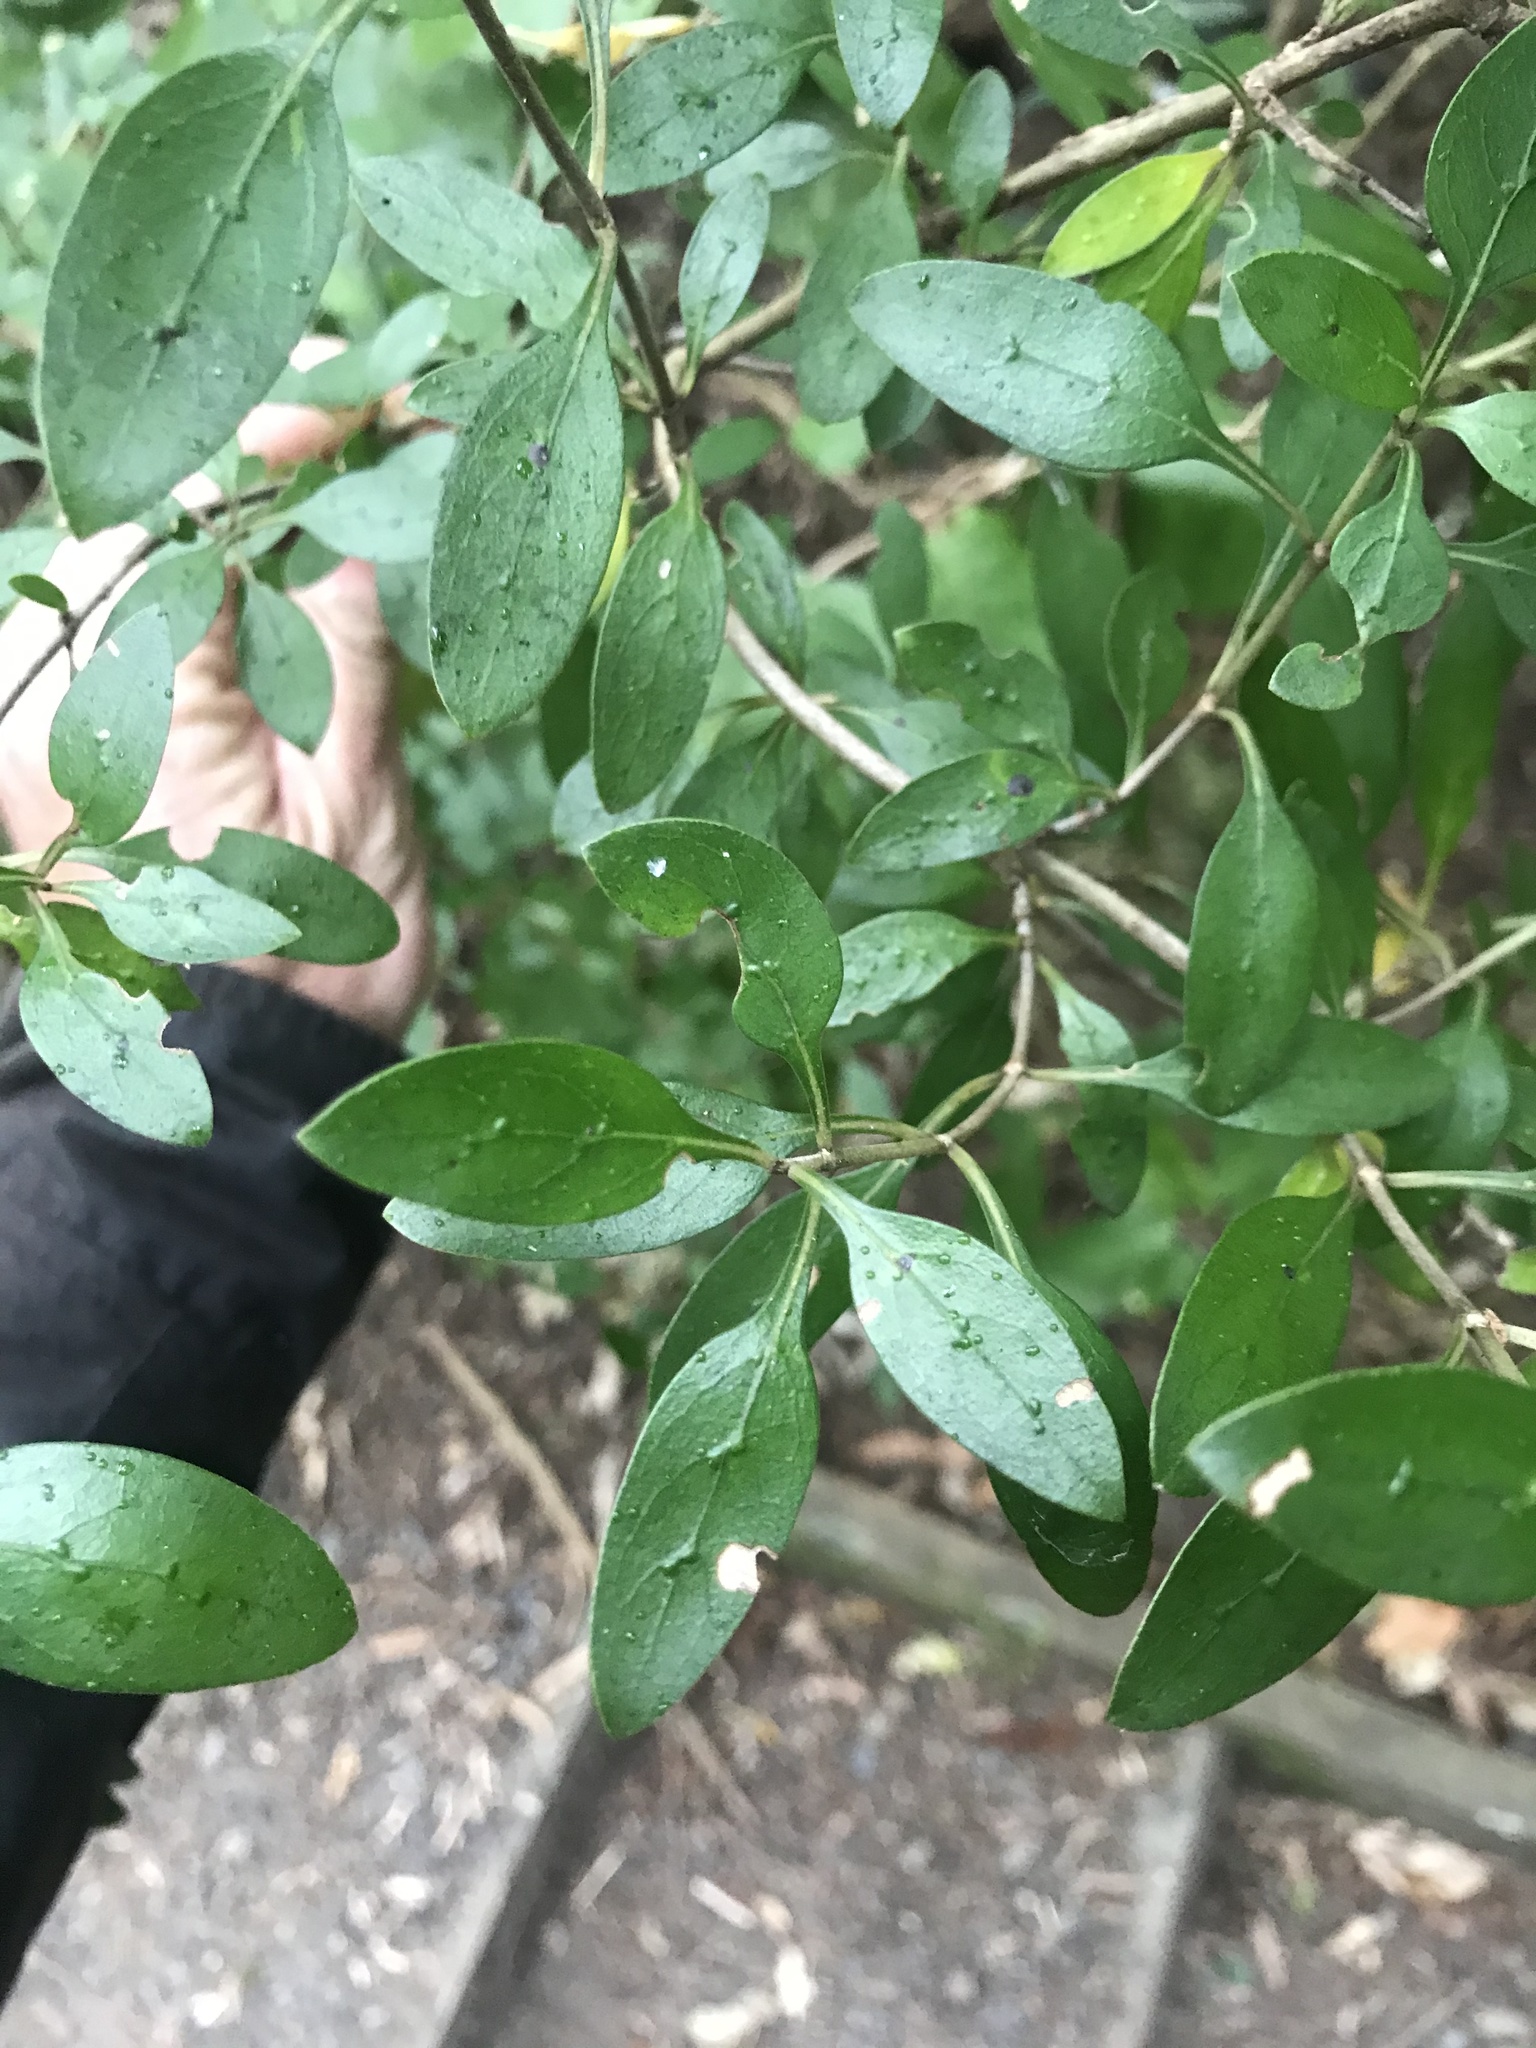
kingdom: Plantae
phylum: Tracheophyta
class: Magnoliopsida
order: Gentianales
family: Rubiaceae
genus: Coprosma
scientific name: Coprosma cunninghamii
